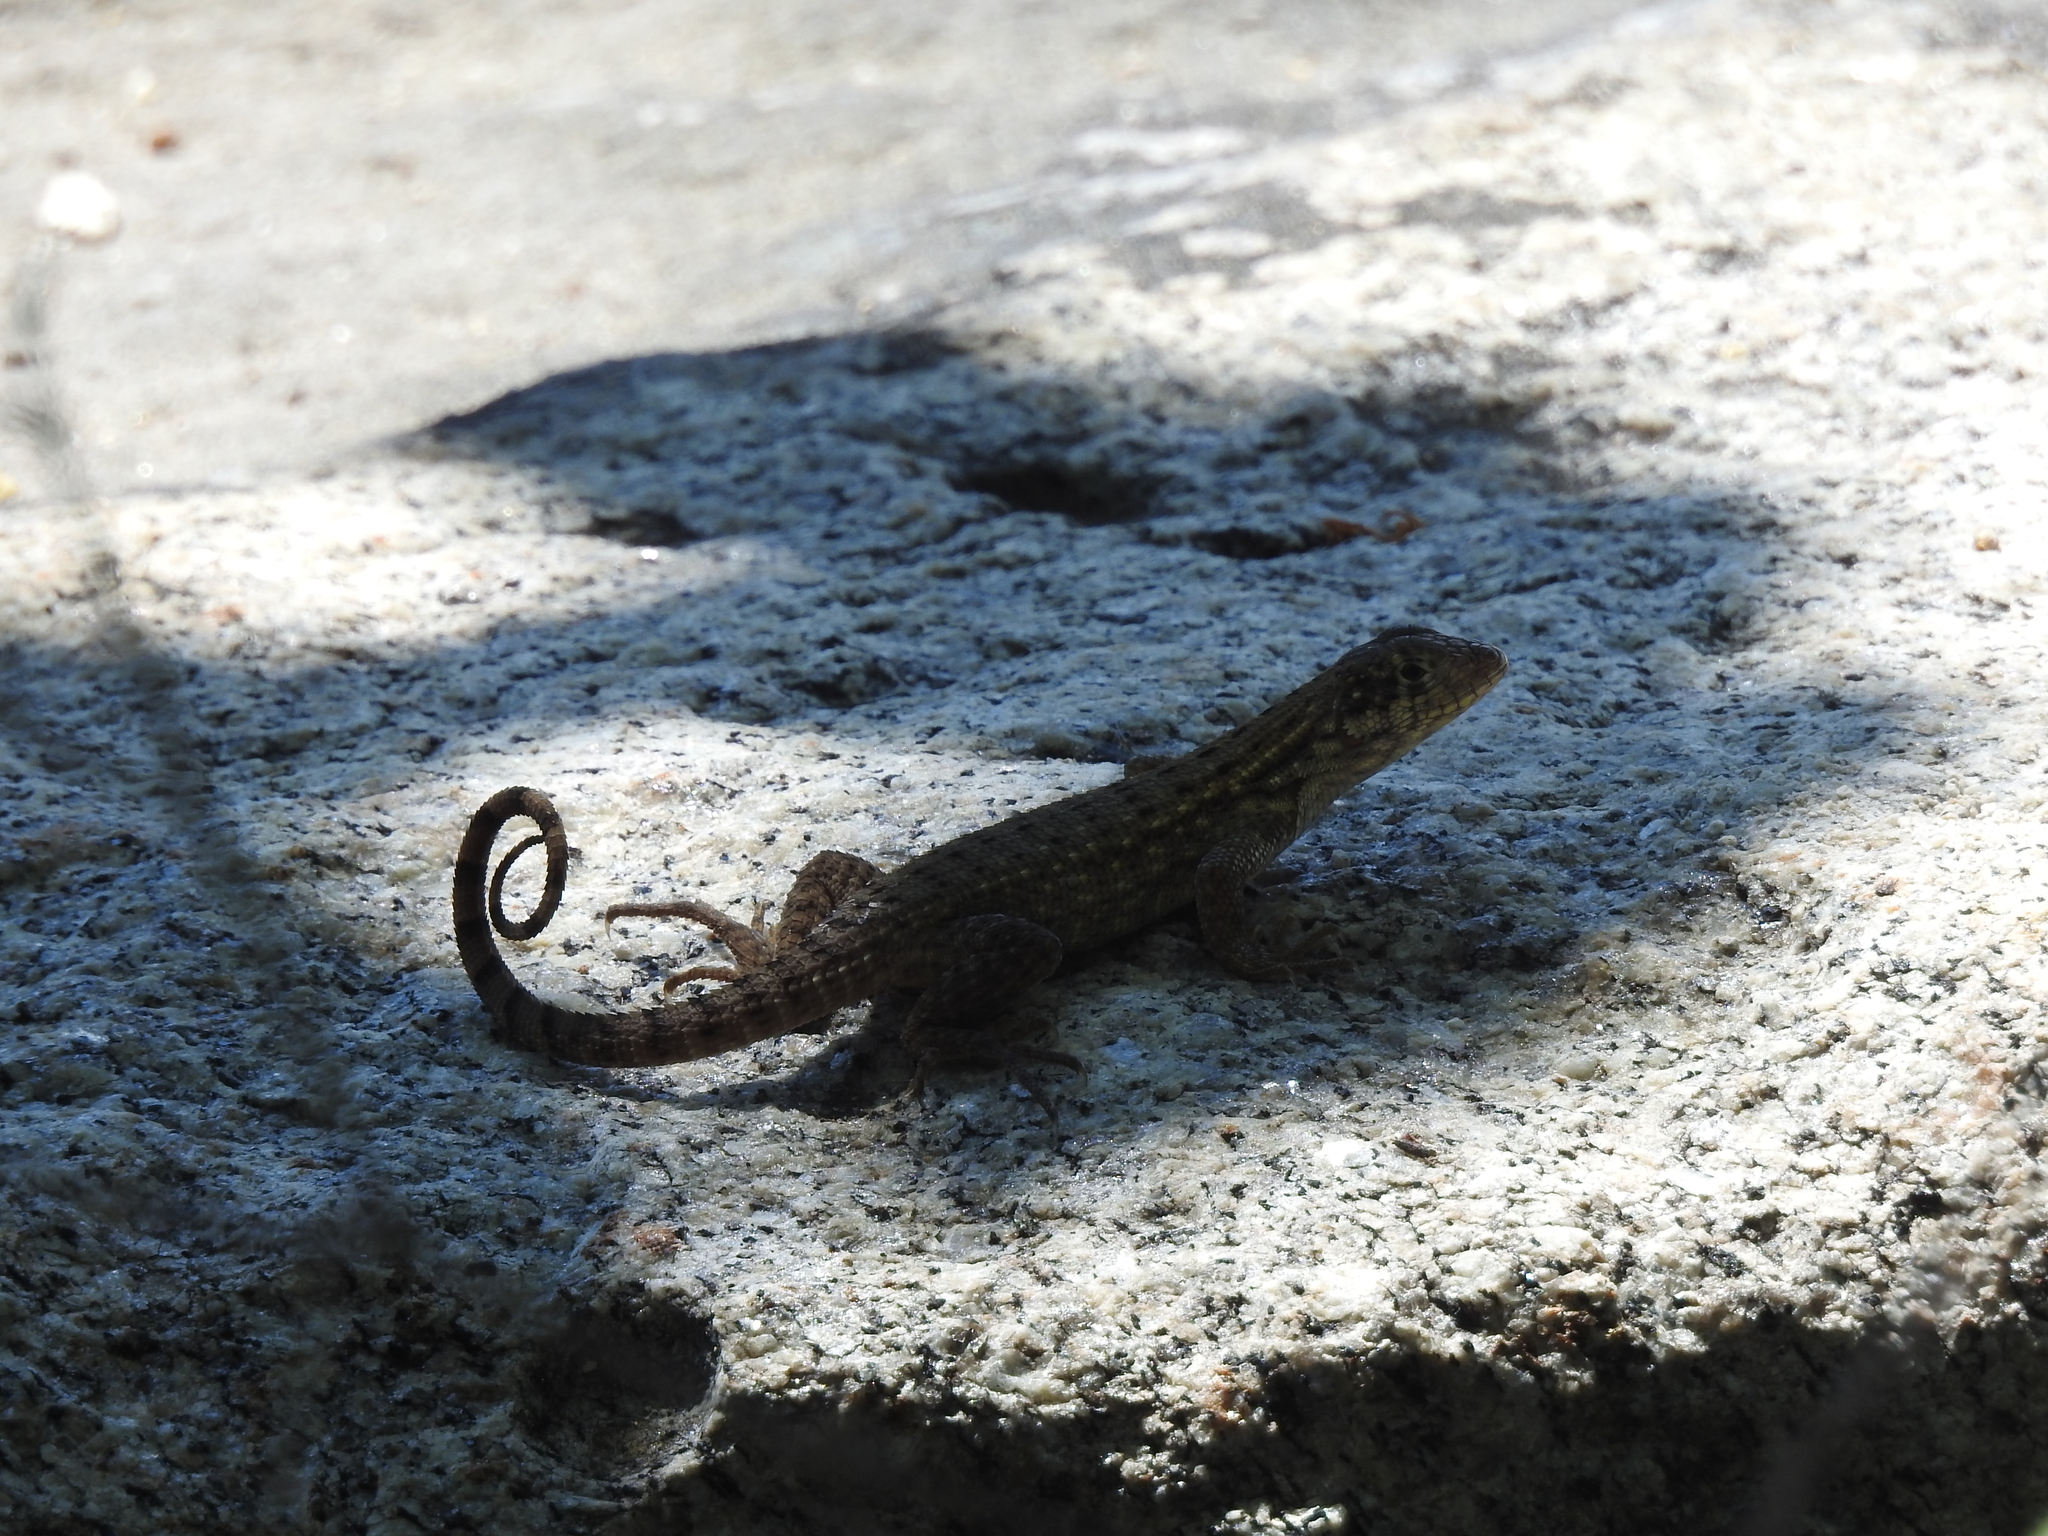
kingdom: Animalia
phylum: Chordata
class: Squamata
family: Leiocephalidae
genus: Leiocephalus
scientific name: Leiocephalus carinatus
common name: Northern curly-tailed lizard
